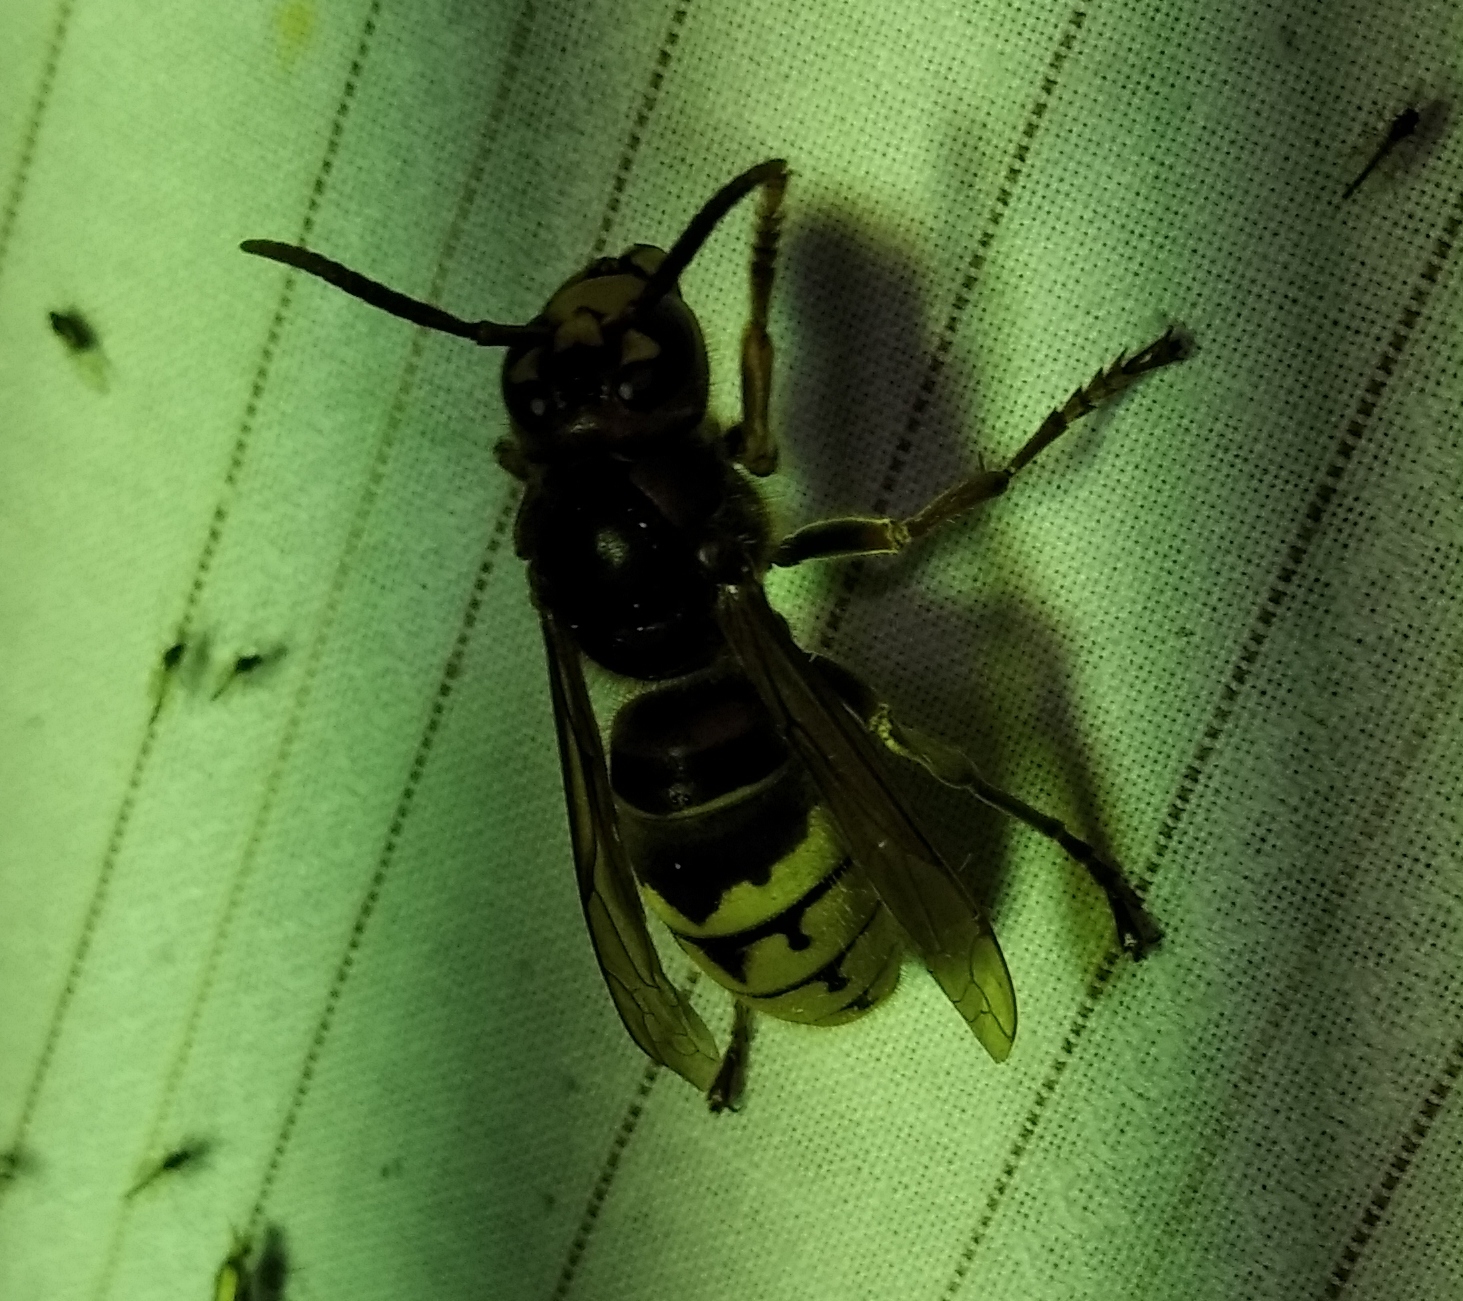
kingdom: Animalia
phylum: Arthropoda
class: Insecta
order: Hymenoptera
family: Vespidae
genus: Vespa
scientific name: Vespa crabro
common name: Hornet
